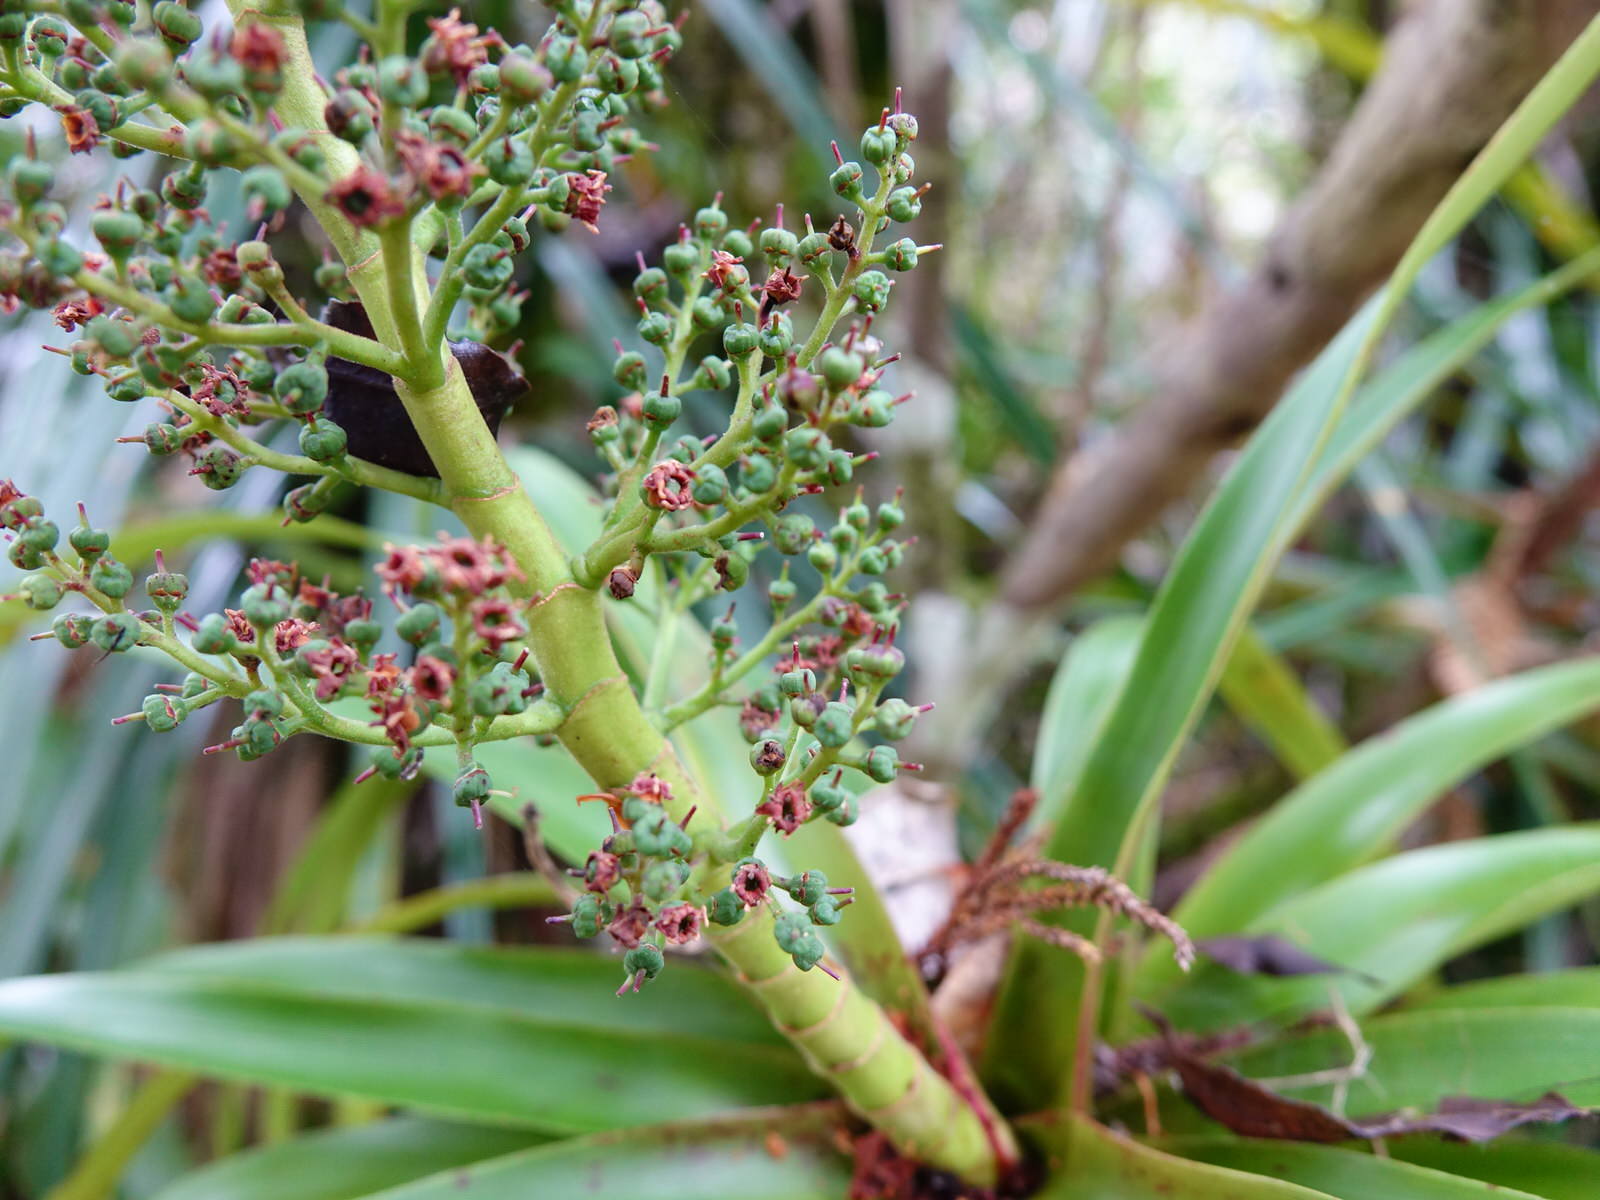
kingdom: Plantae
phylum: Tracheophyta
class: Magnoliopsida
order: Ericales
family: Ericaceae
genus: Dracophyllum
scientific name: Dracophyllum latifolium
